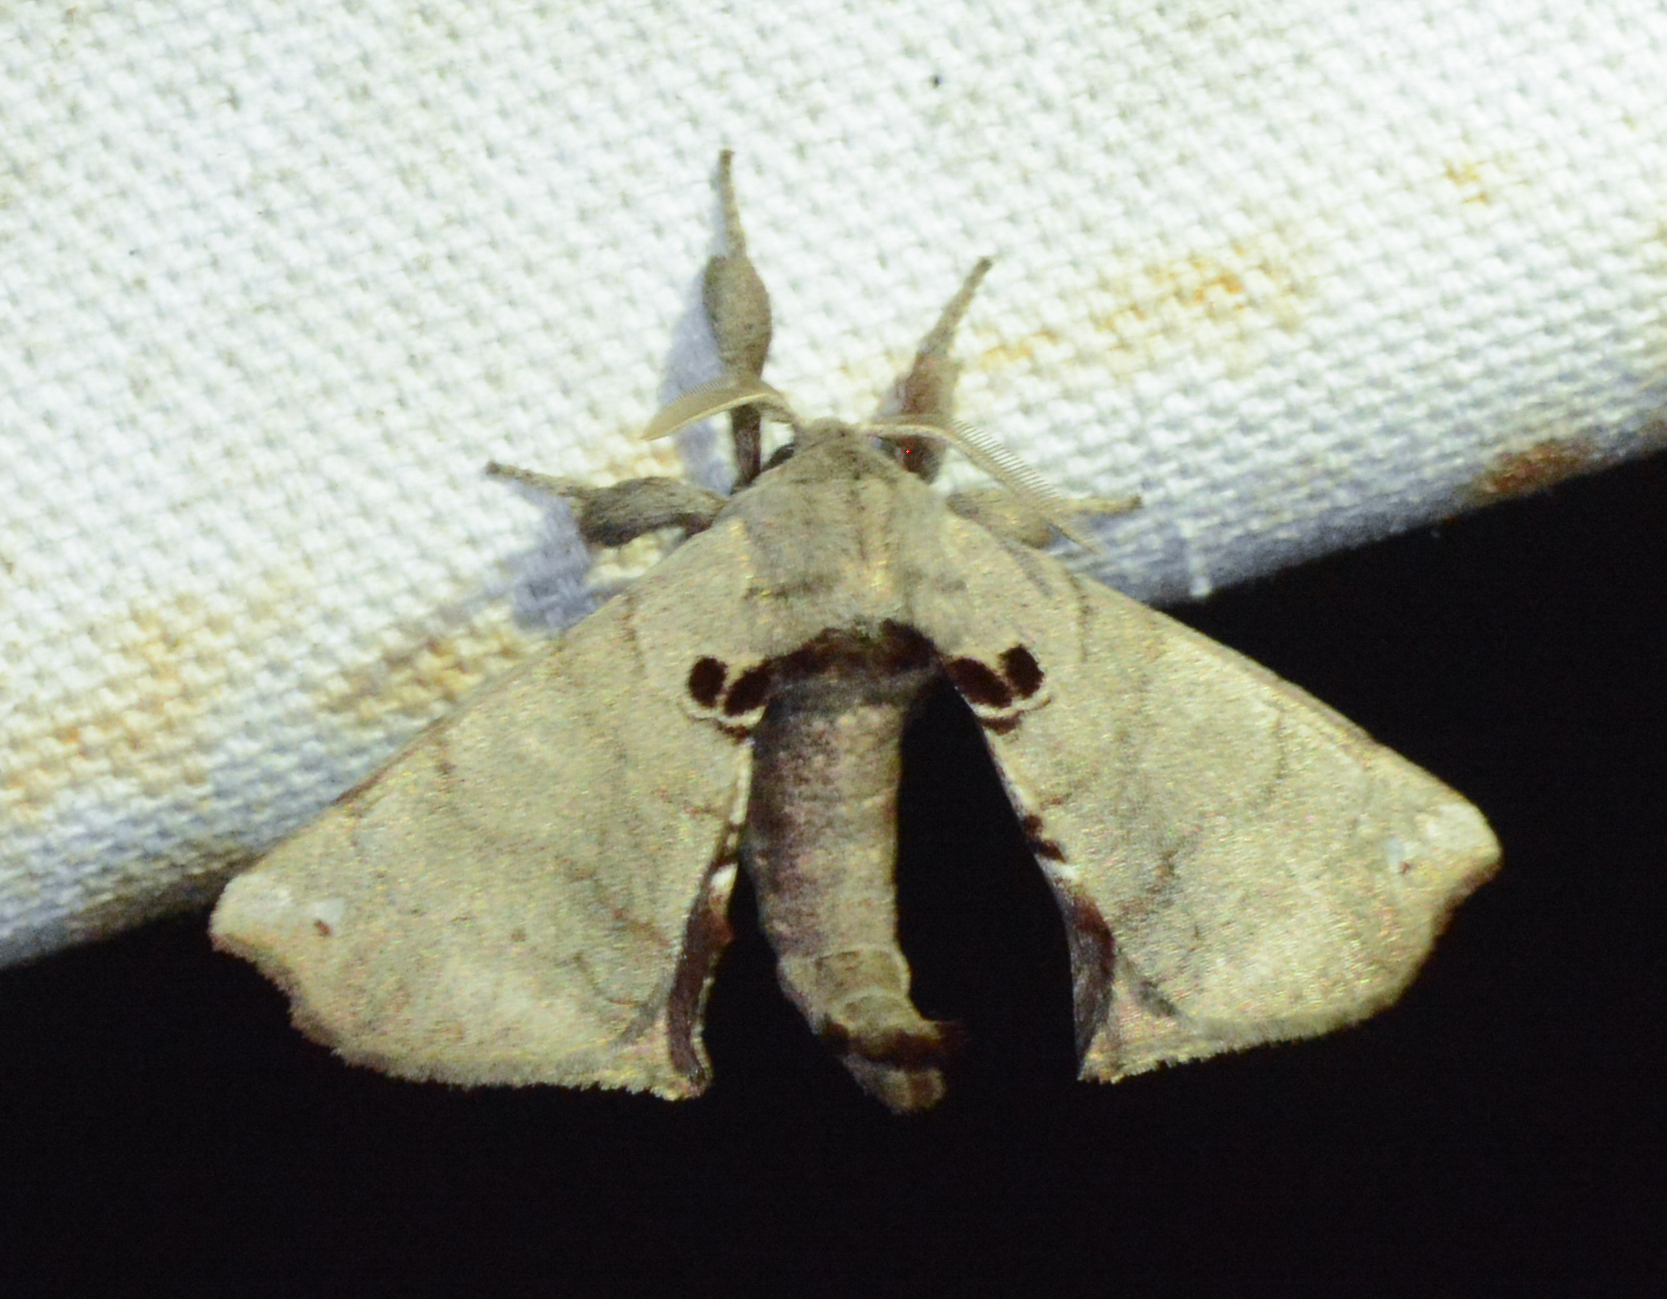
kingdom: Animalia
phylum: Arthropoda
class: Insecta
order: Lepidoptera
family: Apatelodidae
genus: Hygrochroa
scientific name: Hygrochroa Apatelodes torrefacta
